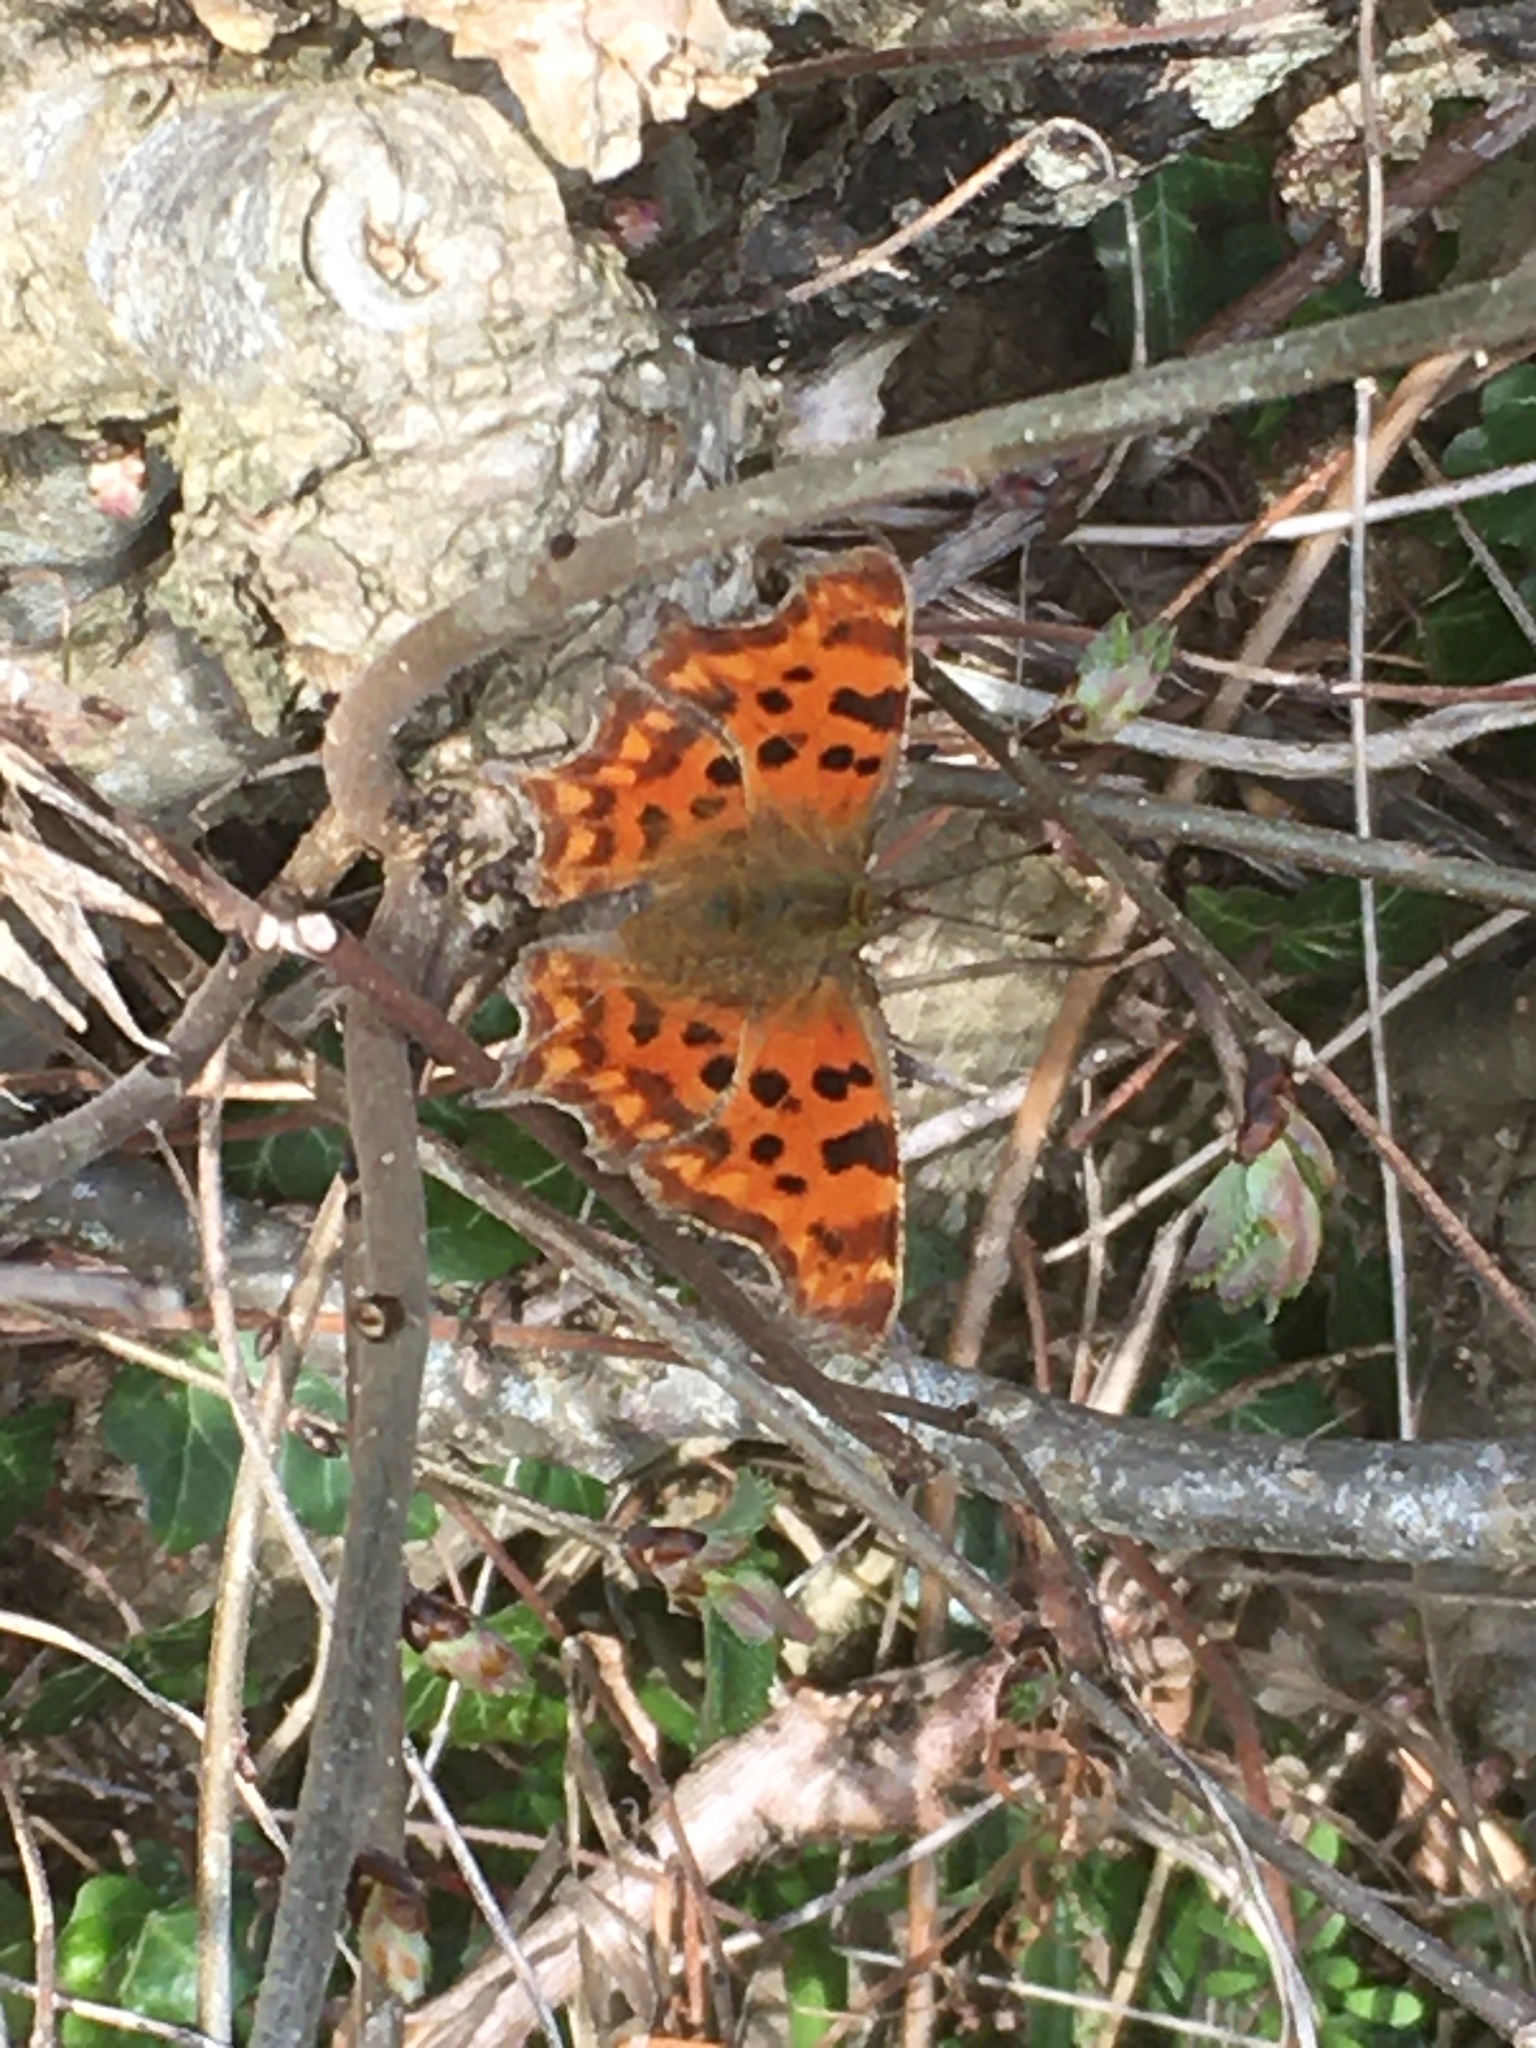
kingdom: Animalia
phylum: Arthropoda
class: Insecta
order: Lepidoptera
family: Nymphalidae
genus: Polygonia
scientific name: Polygonia c-album
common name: Comma
